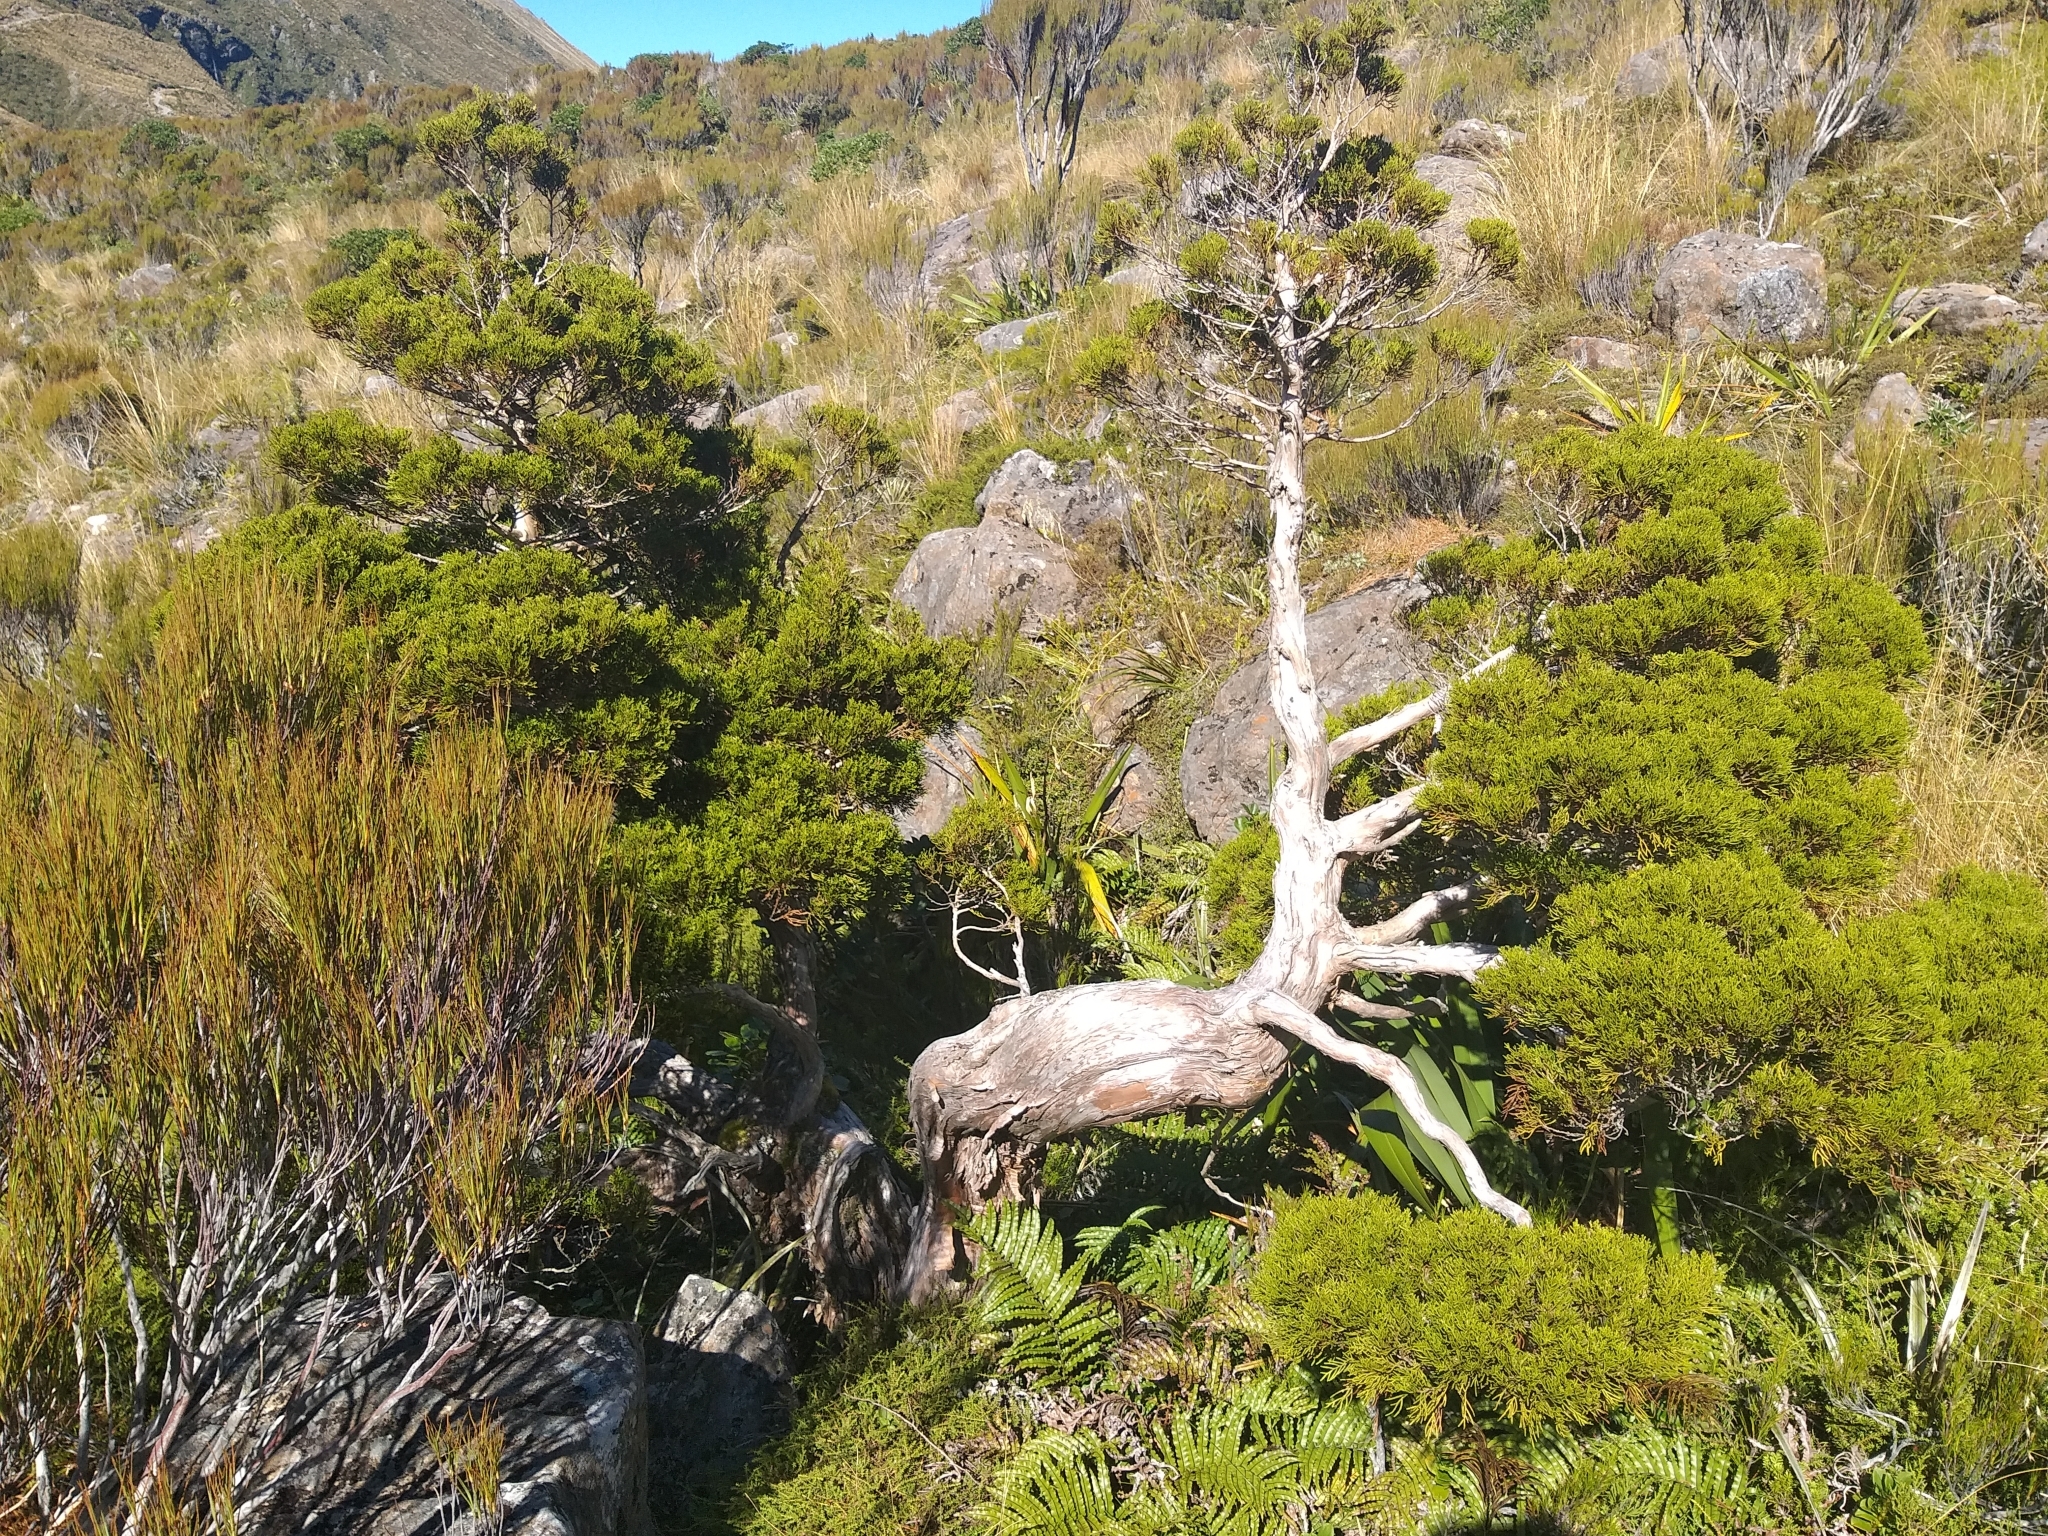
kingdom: Plantae
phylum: Tracheophyta
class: Pinopsida
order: Pinales
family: Cupressaceae
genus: Libocedrus
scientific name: Libocedrus bidwillii
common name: Cedar
